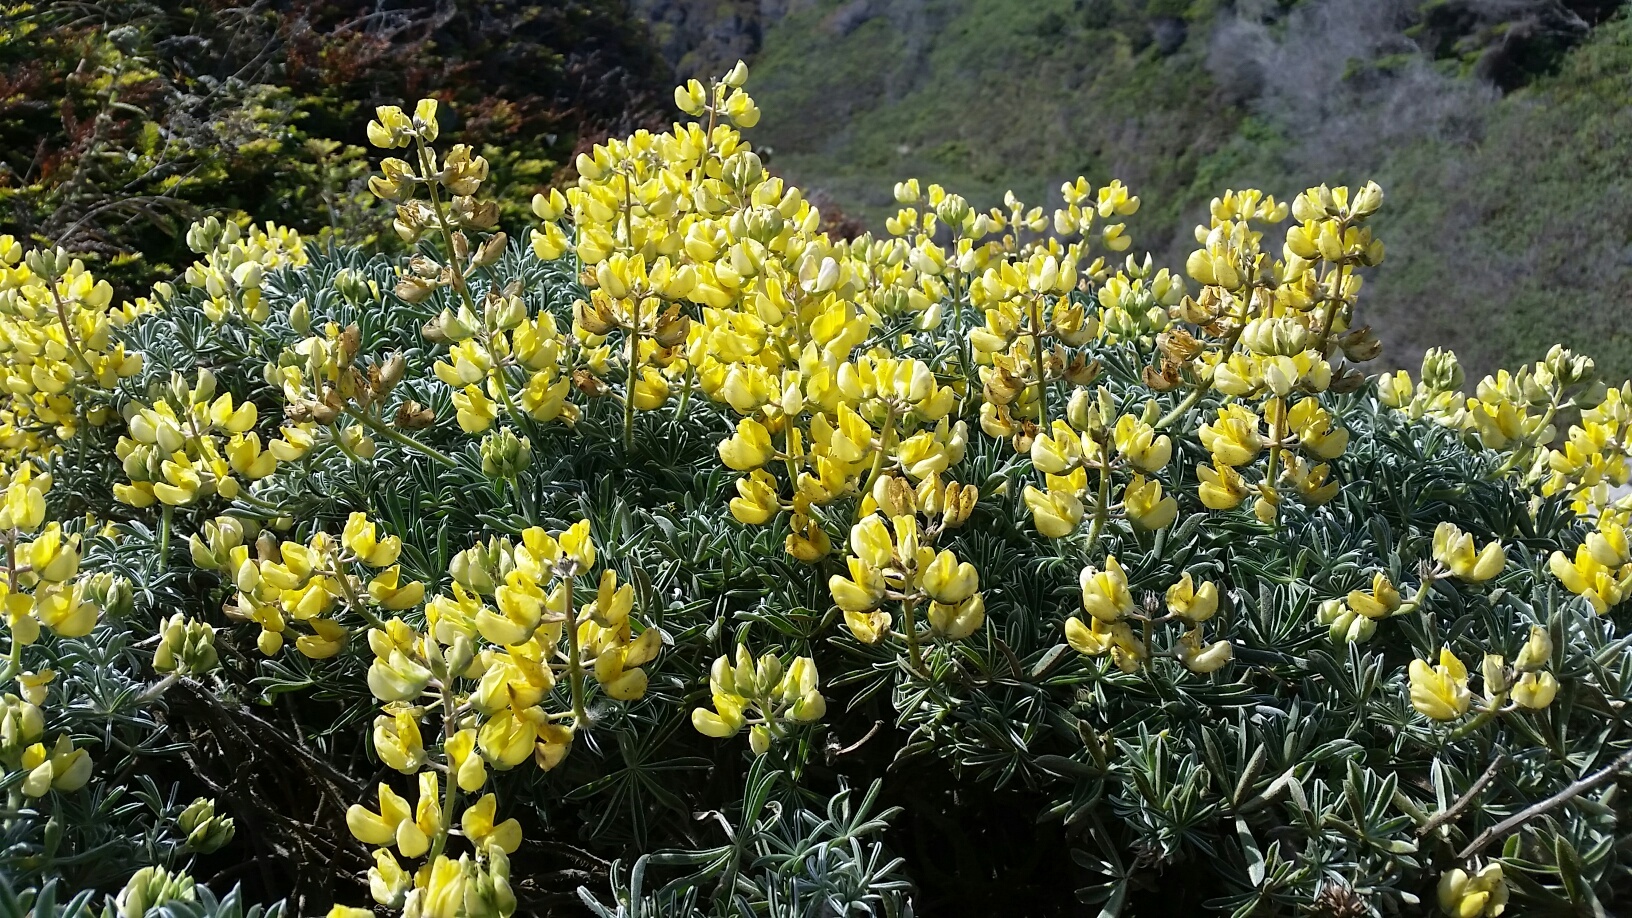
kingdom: Plantae
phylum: Tracheophyta
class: Magnoliopsida
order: Fabales
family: Fabaceae
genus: Lupinus
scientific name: Lupinus arboreus
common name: Yellow bush lupine
